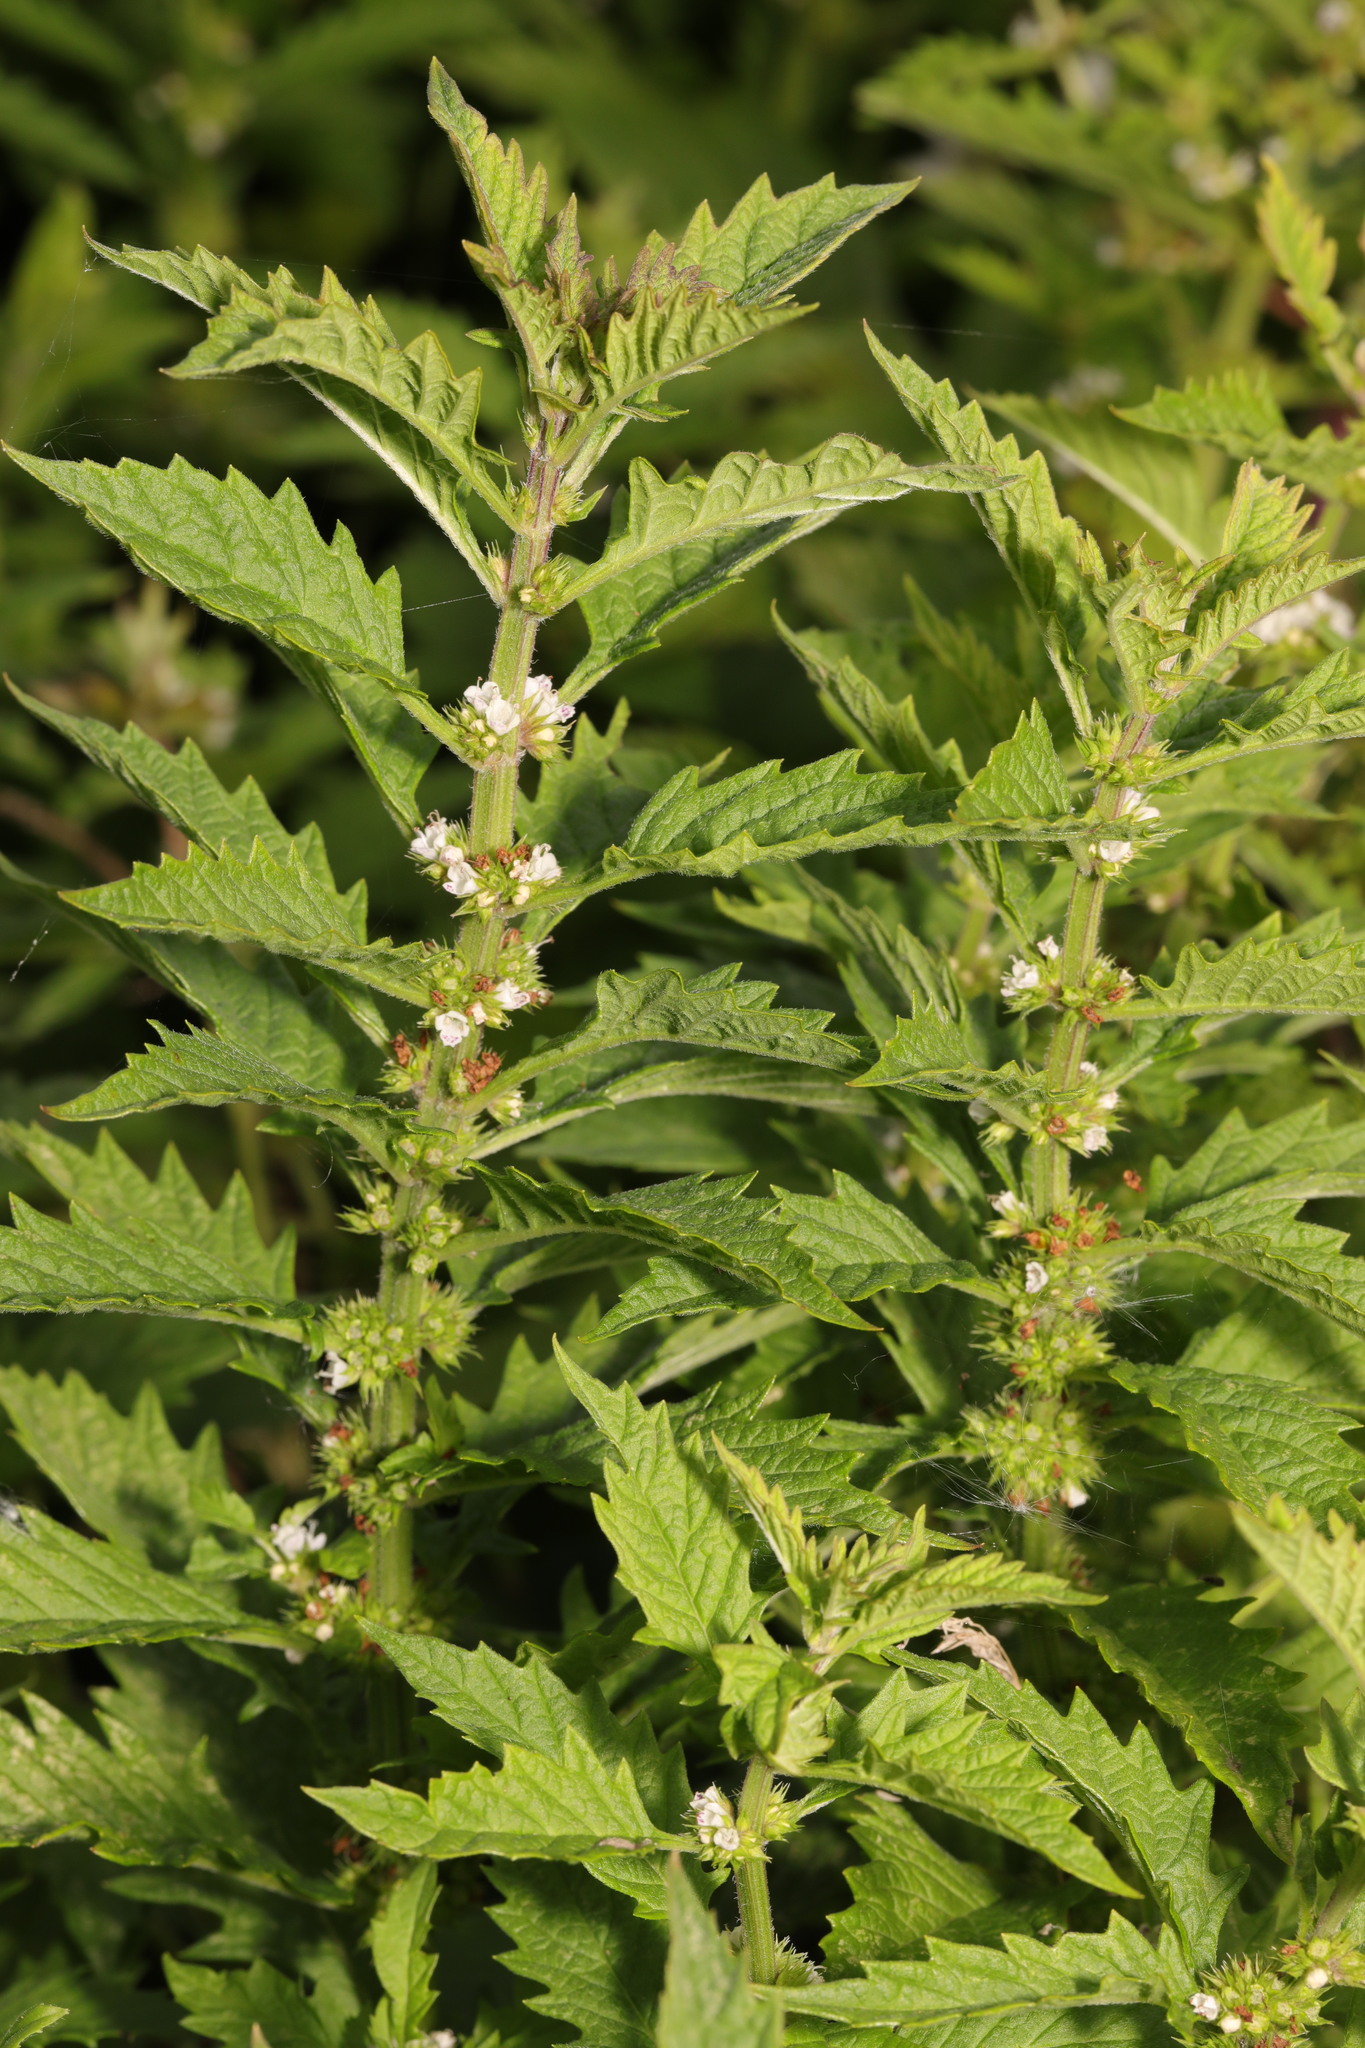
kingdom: Plantae
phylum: Tracheophyta
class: Magnoliopsida
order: Lamiales
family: Lamiaceae
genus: Lycopus
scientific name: Lycopus europaeus
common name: European bugleweed
